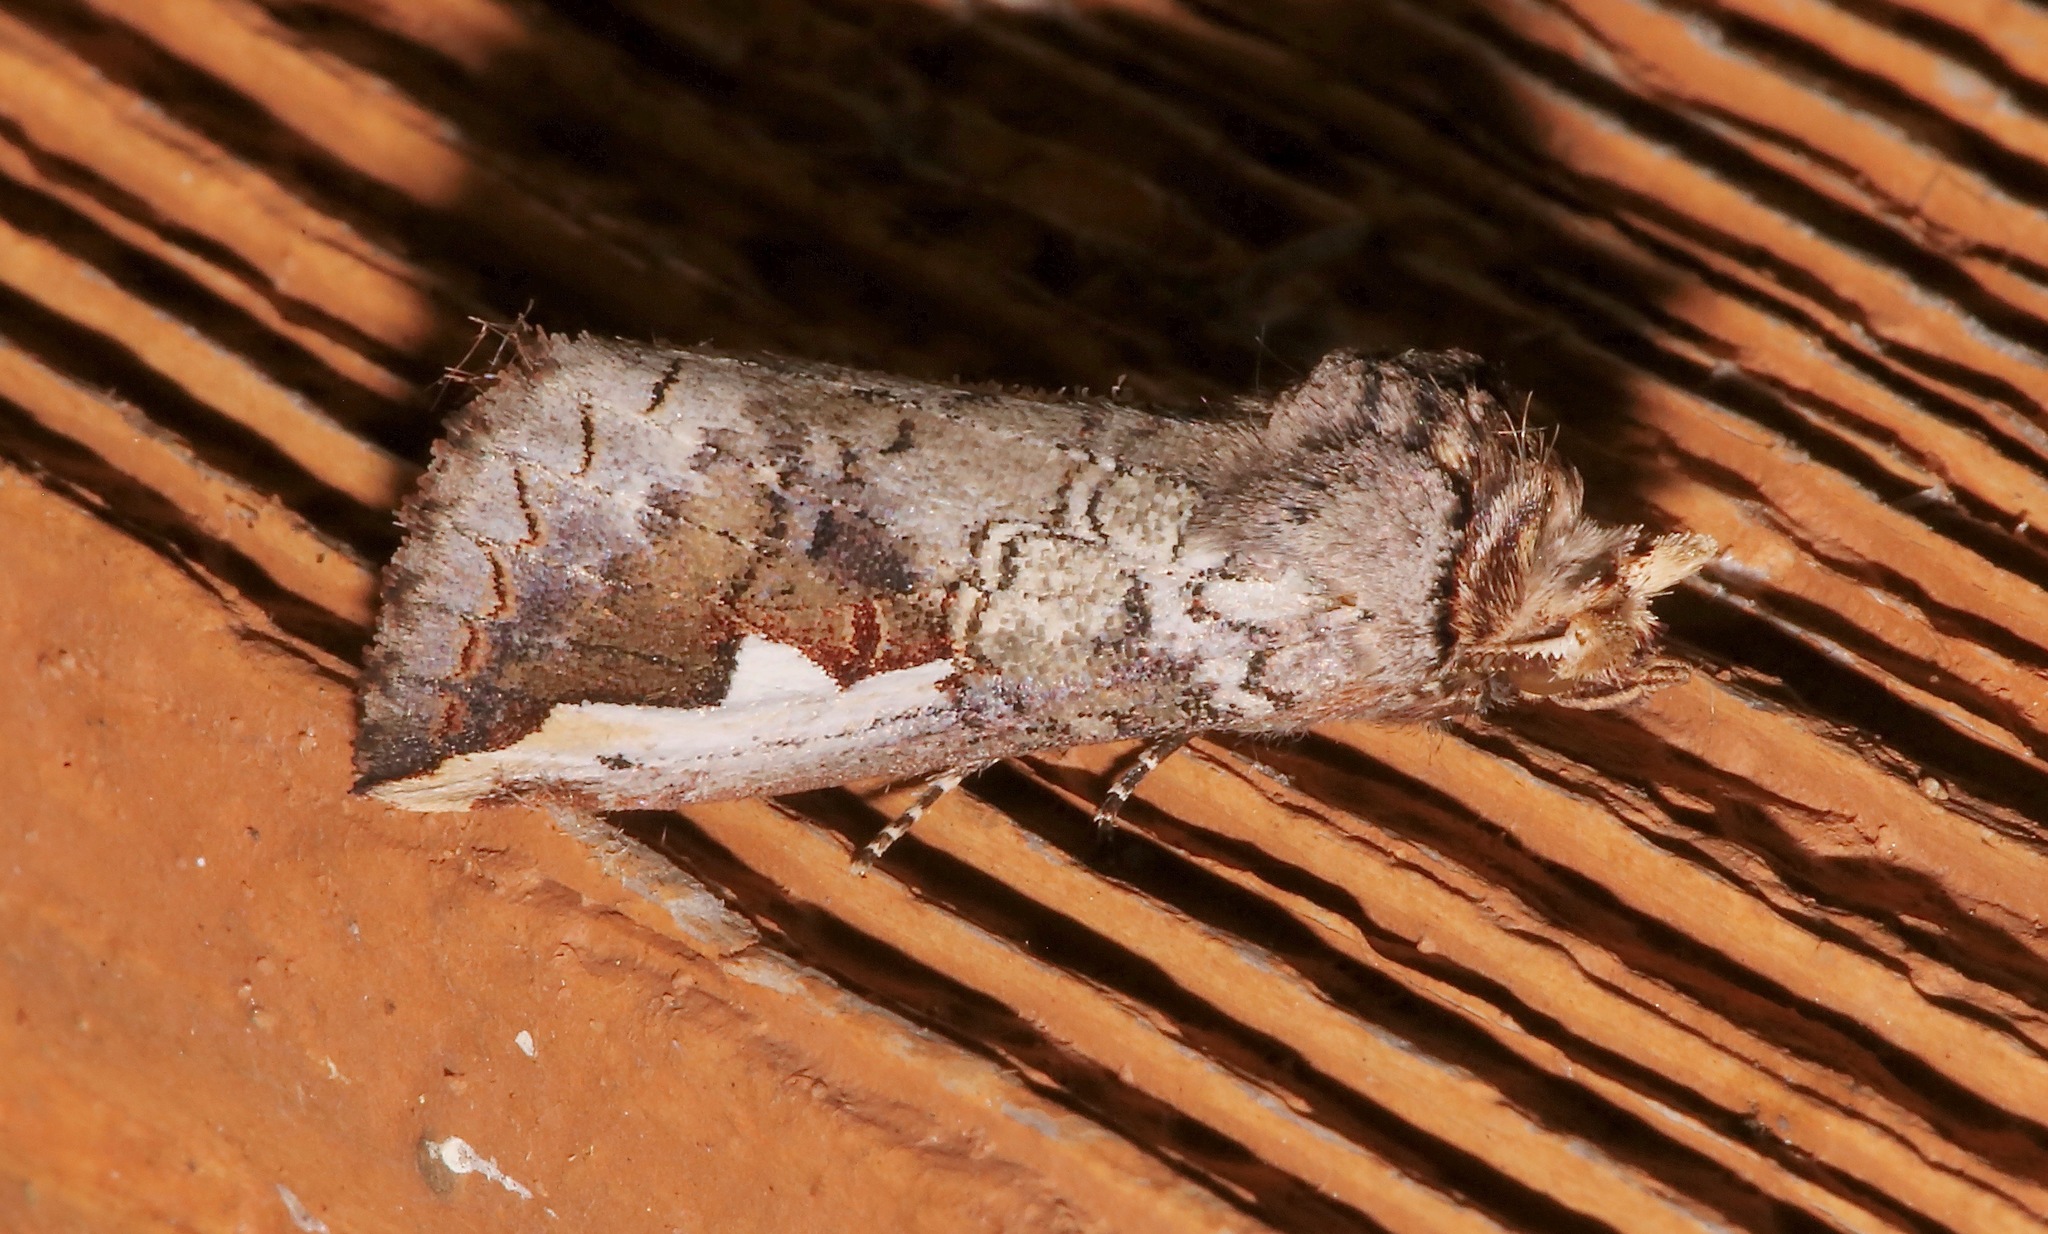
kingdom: Animalia
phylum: Arthropoda
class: Insecta
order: Lepidoptera
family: Notodontidae
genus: Symmerista
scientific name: Symmerista albifrons
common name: White-headed prominent
